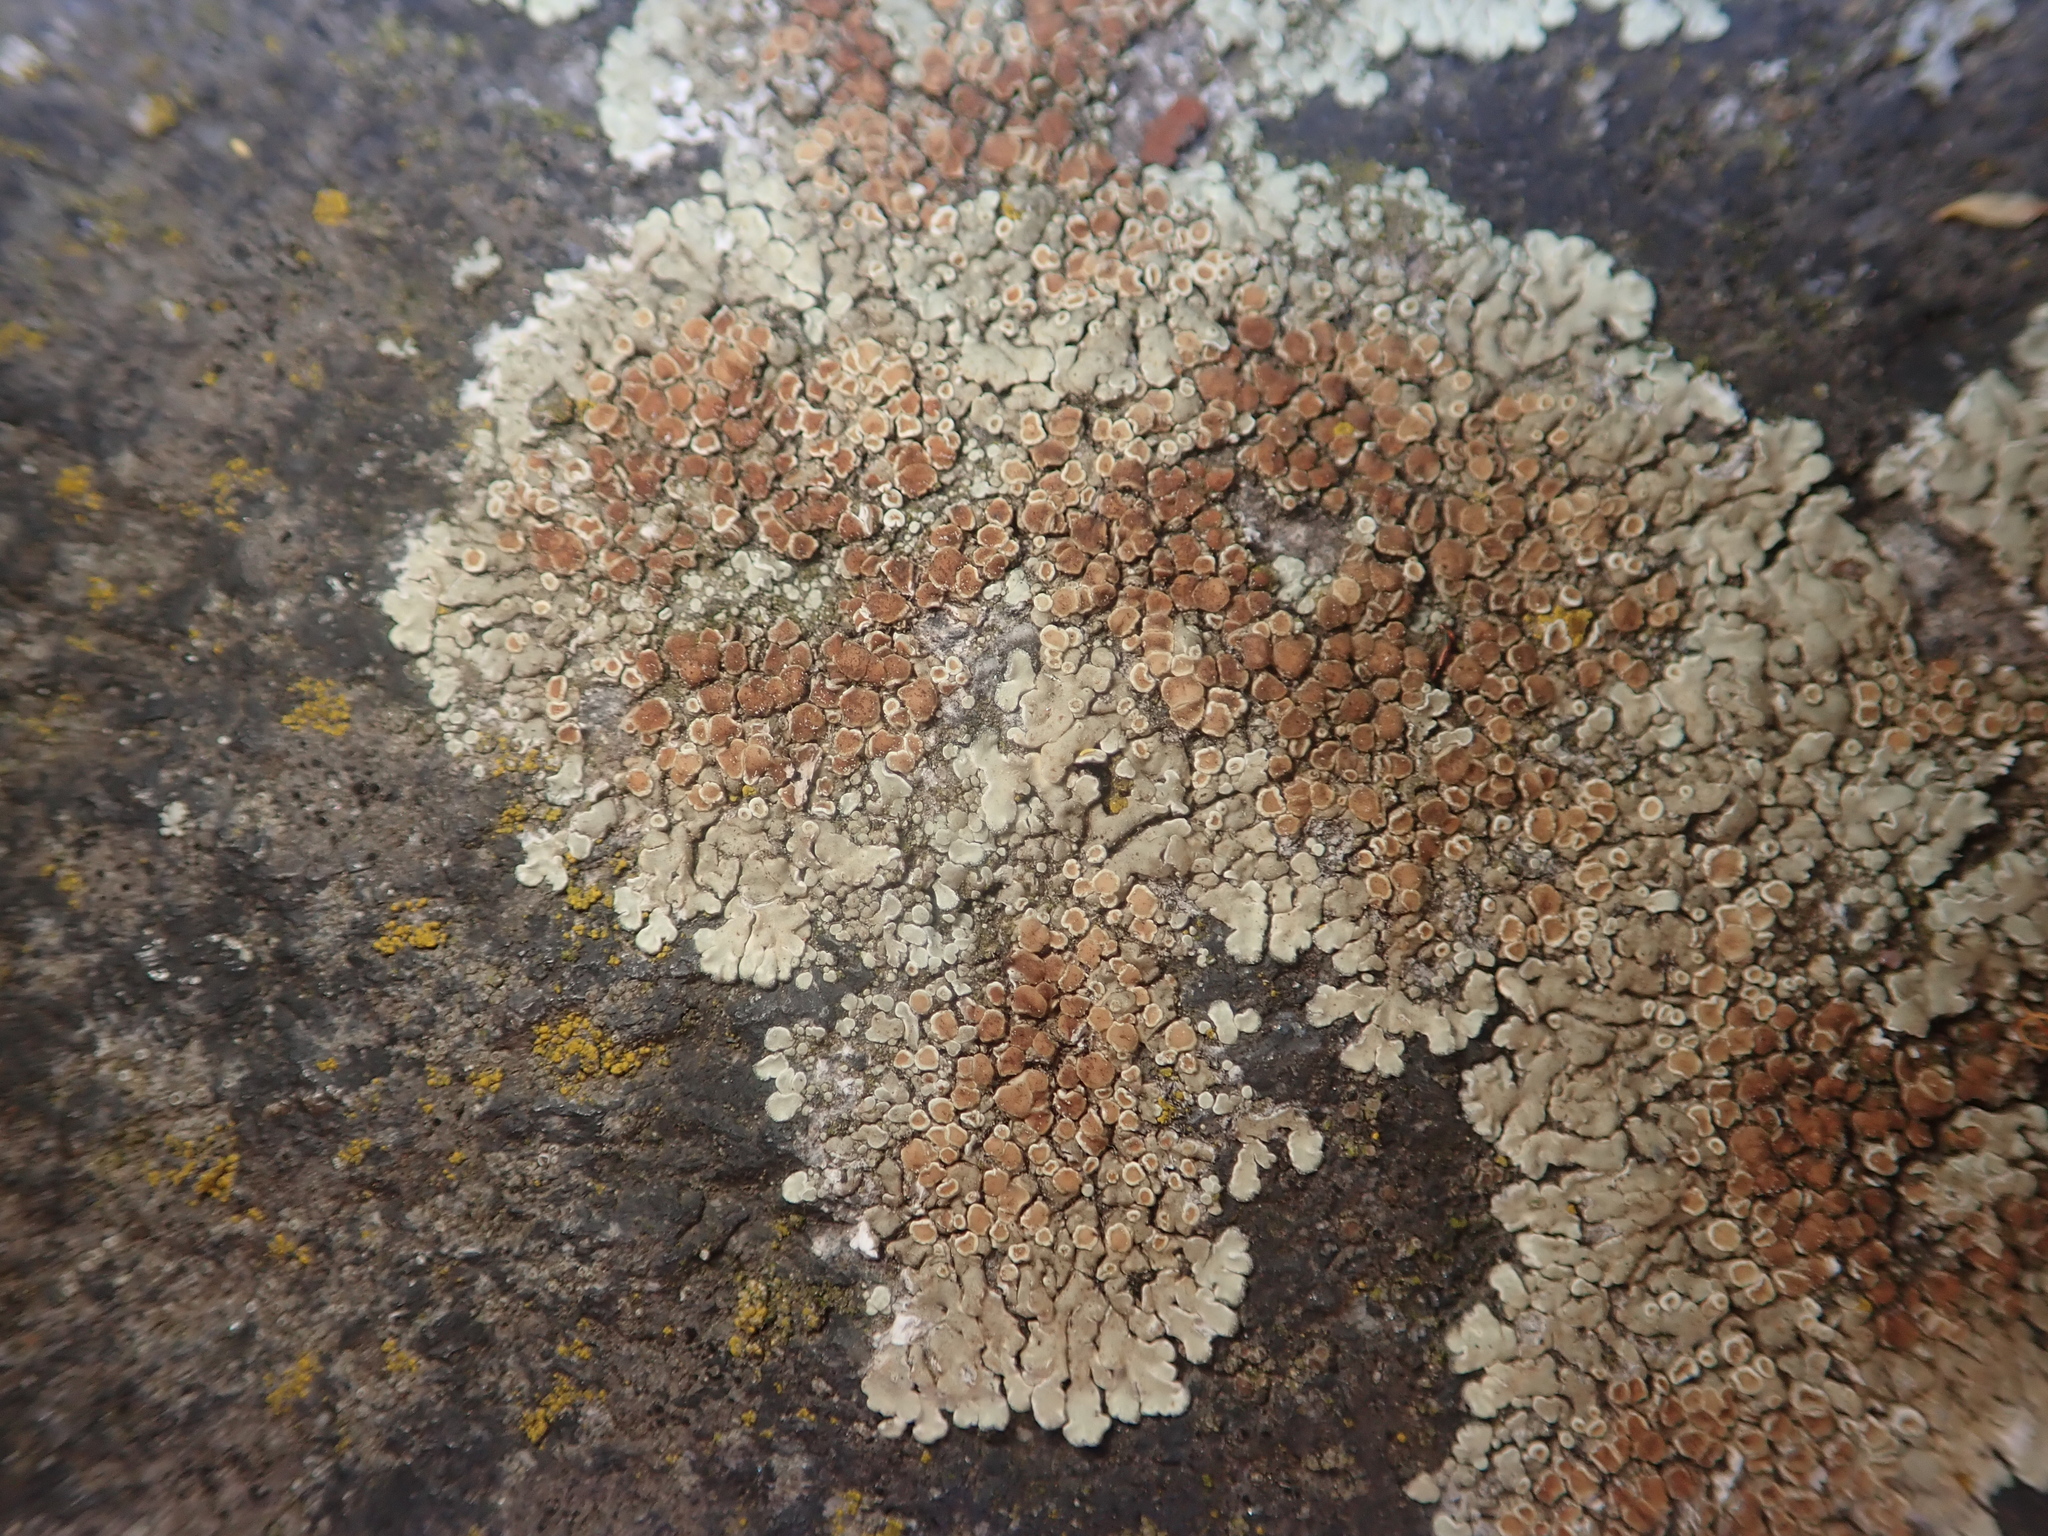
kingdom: Fungi
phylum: Ascomycota
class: Lecanoromycetes
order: Lecanorales
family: Lecanoraceae
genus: Protoparmeliopsis
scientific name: Protoparmeliopsis muralis
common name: Stonewall rim lichen
